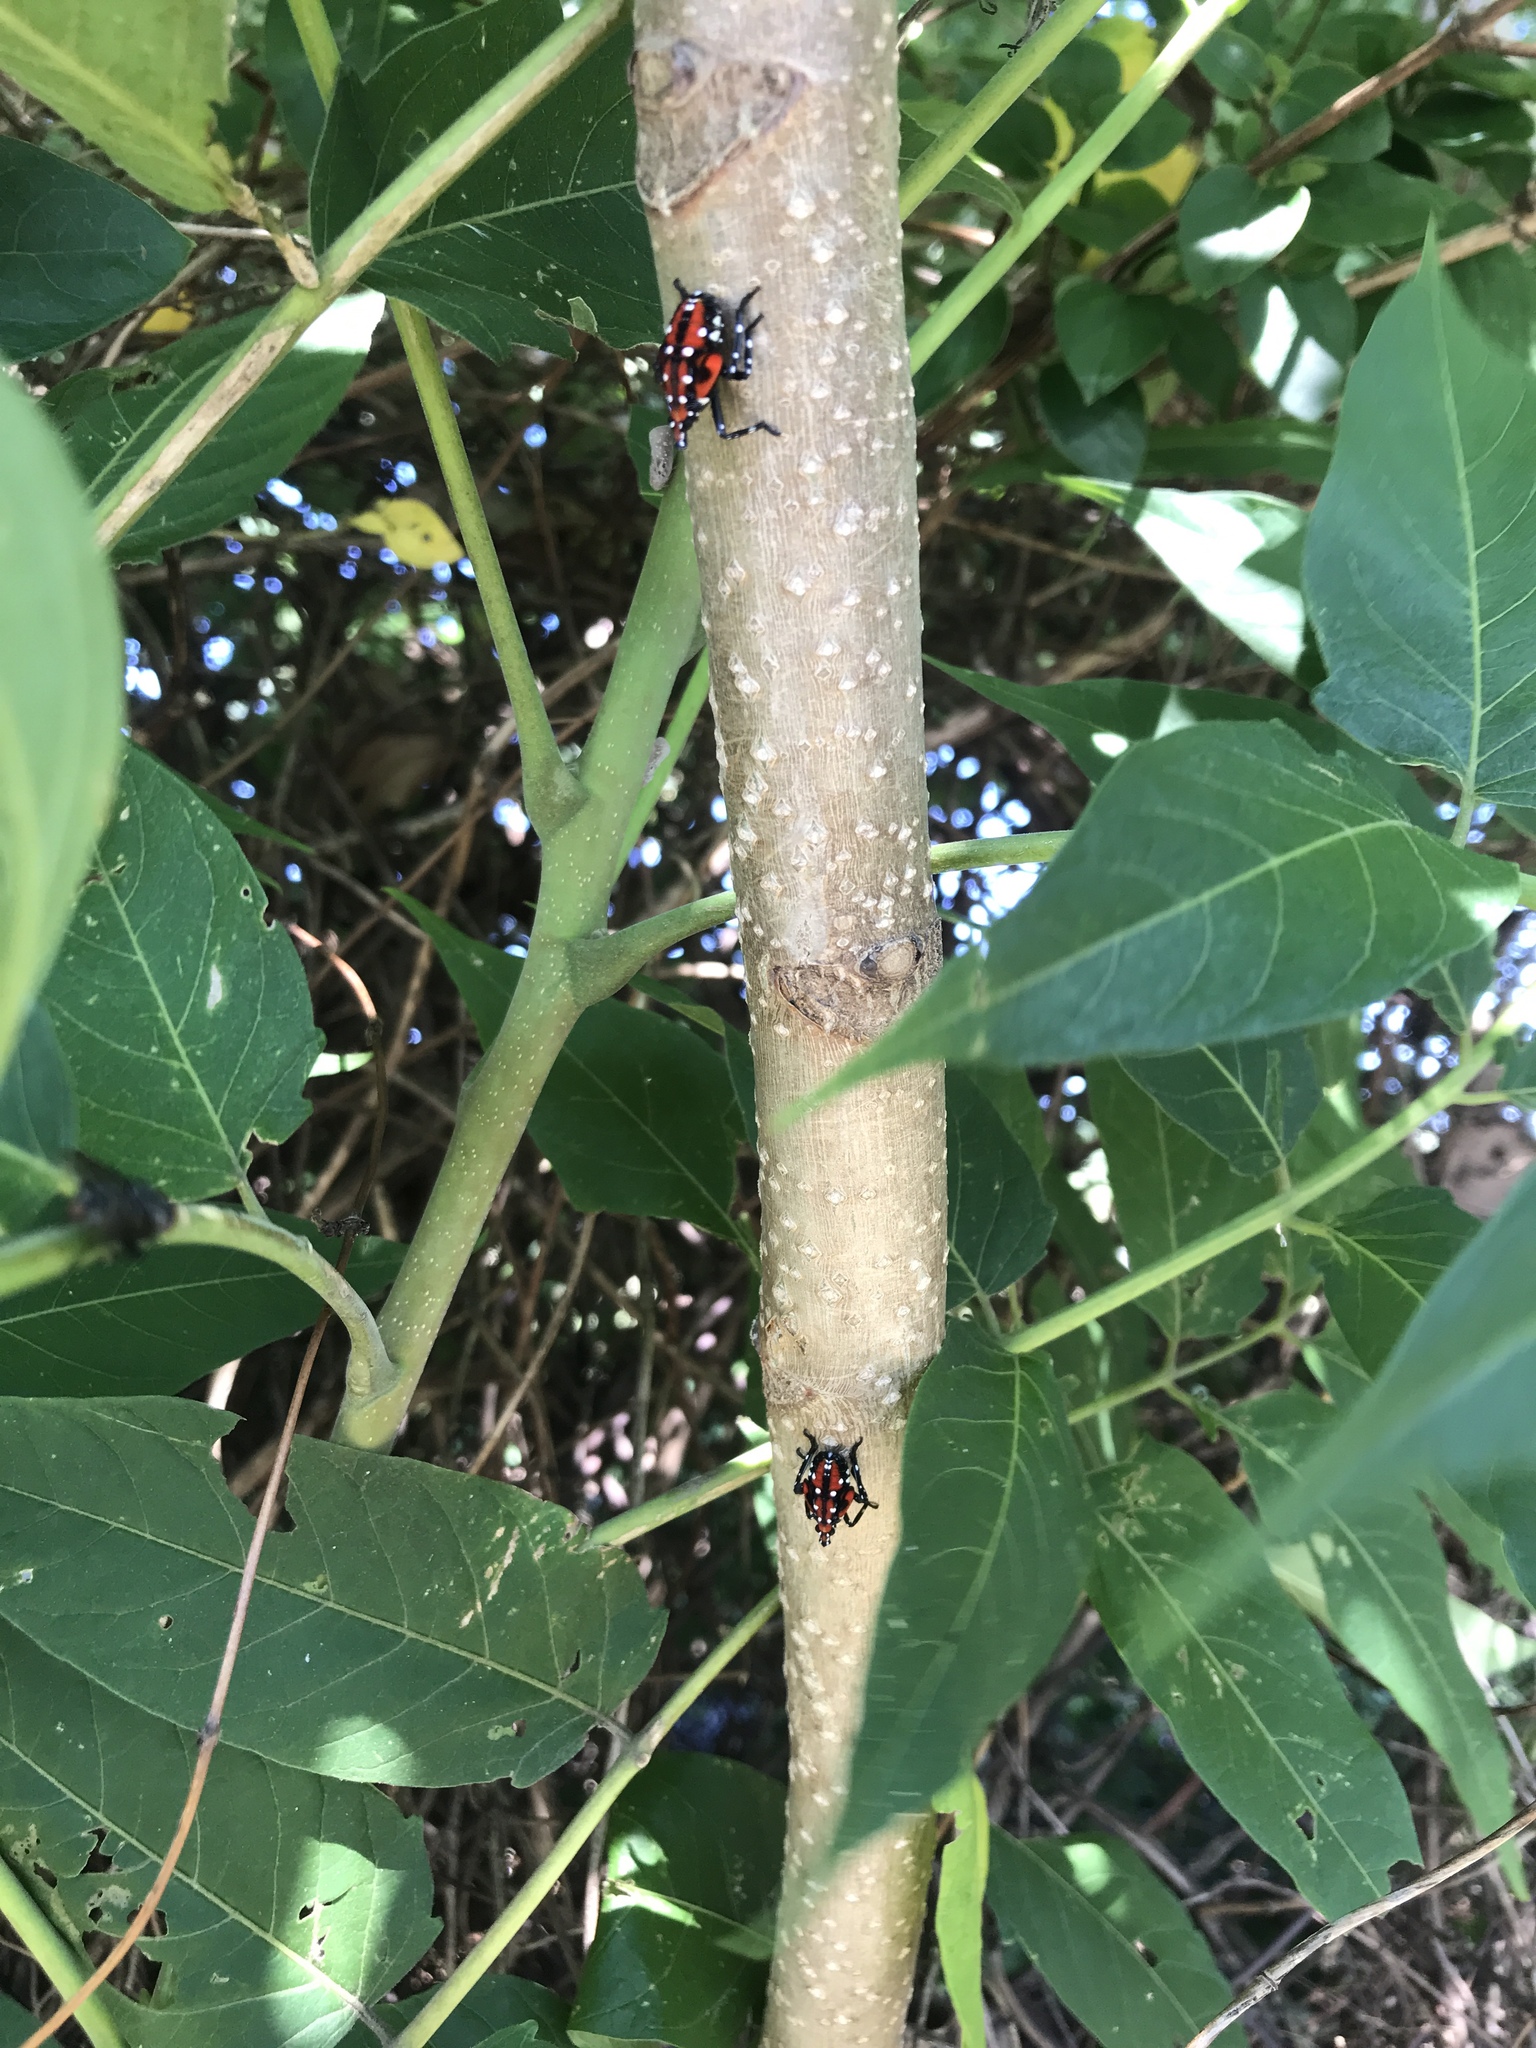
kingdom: Animalia
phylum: Arthropoda
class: Insecta
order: Hemiptera
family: Fulgoridae
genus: Lycorma
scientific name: Lycorma delicatula
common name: Spotted lanternfly
